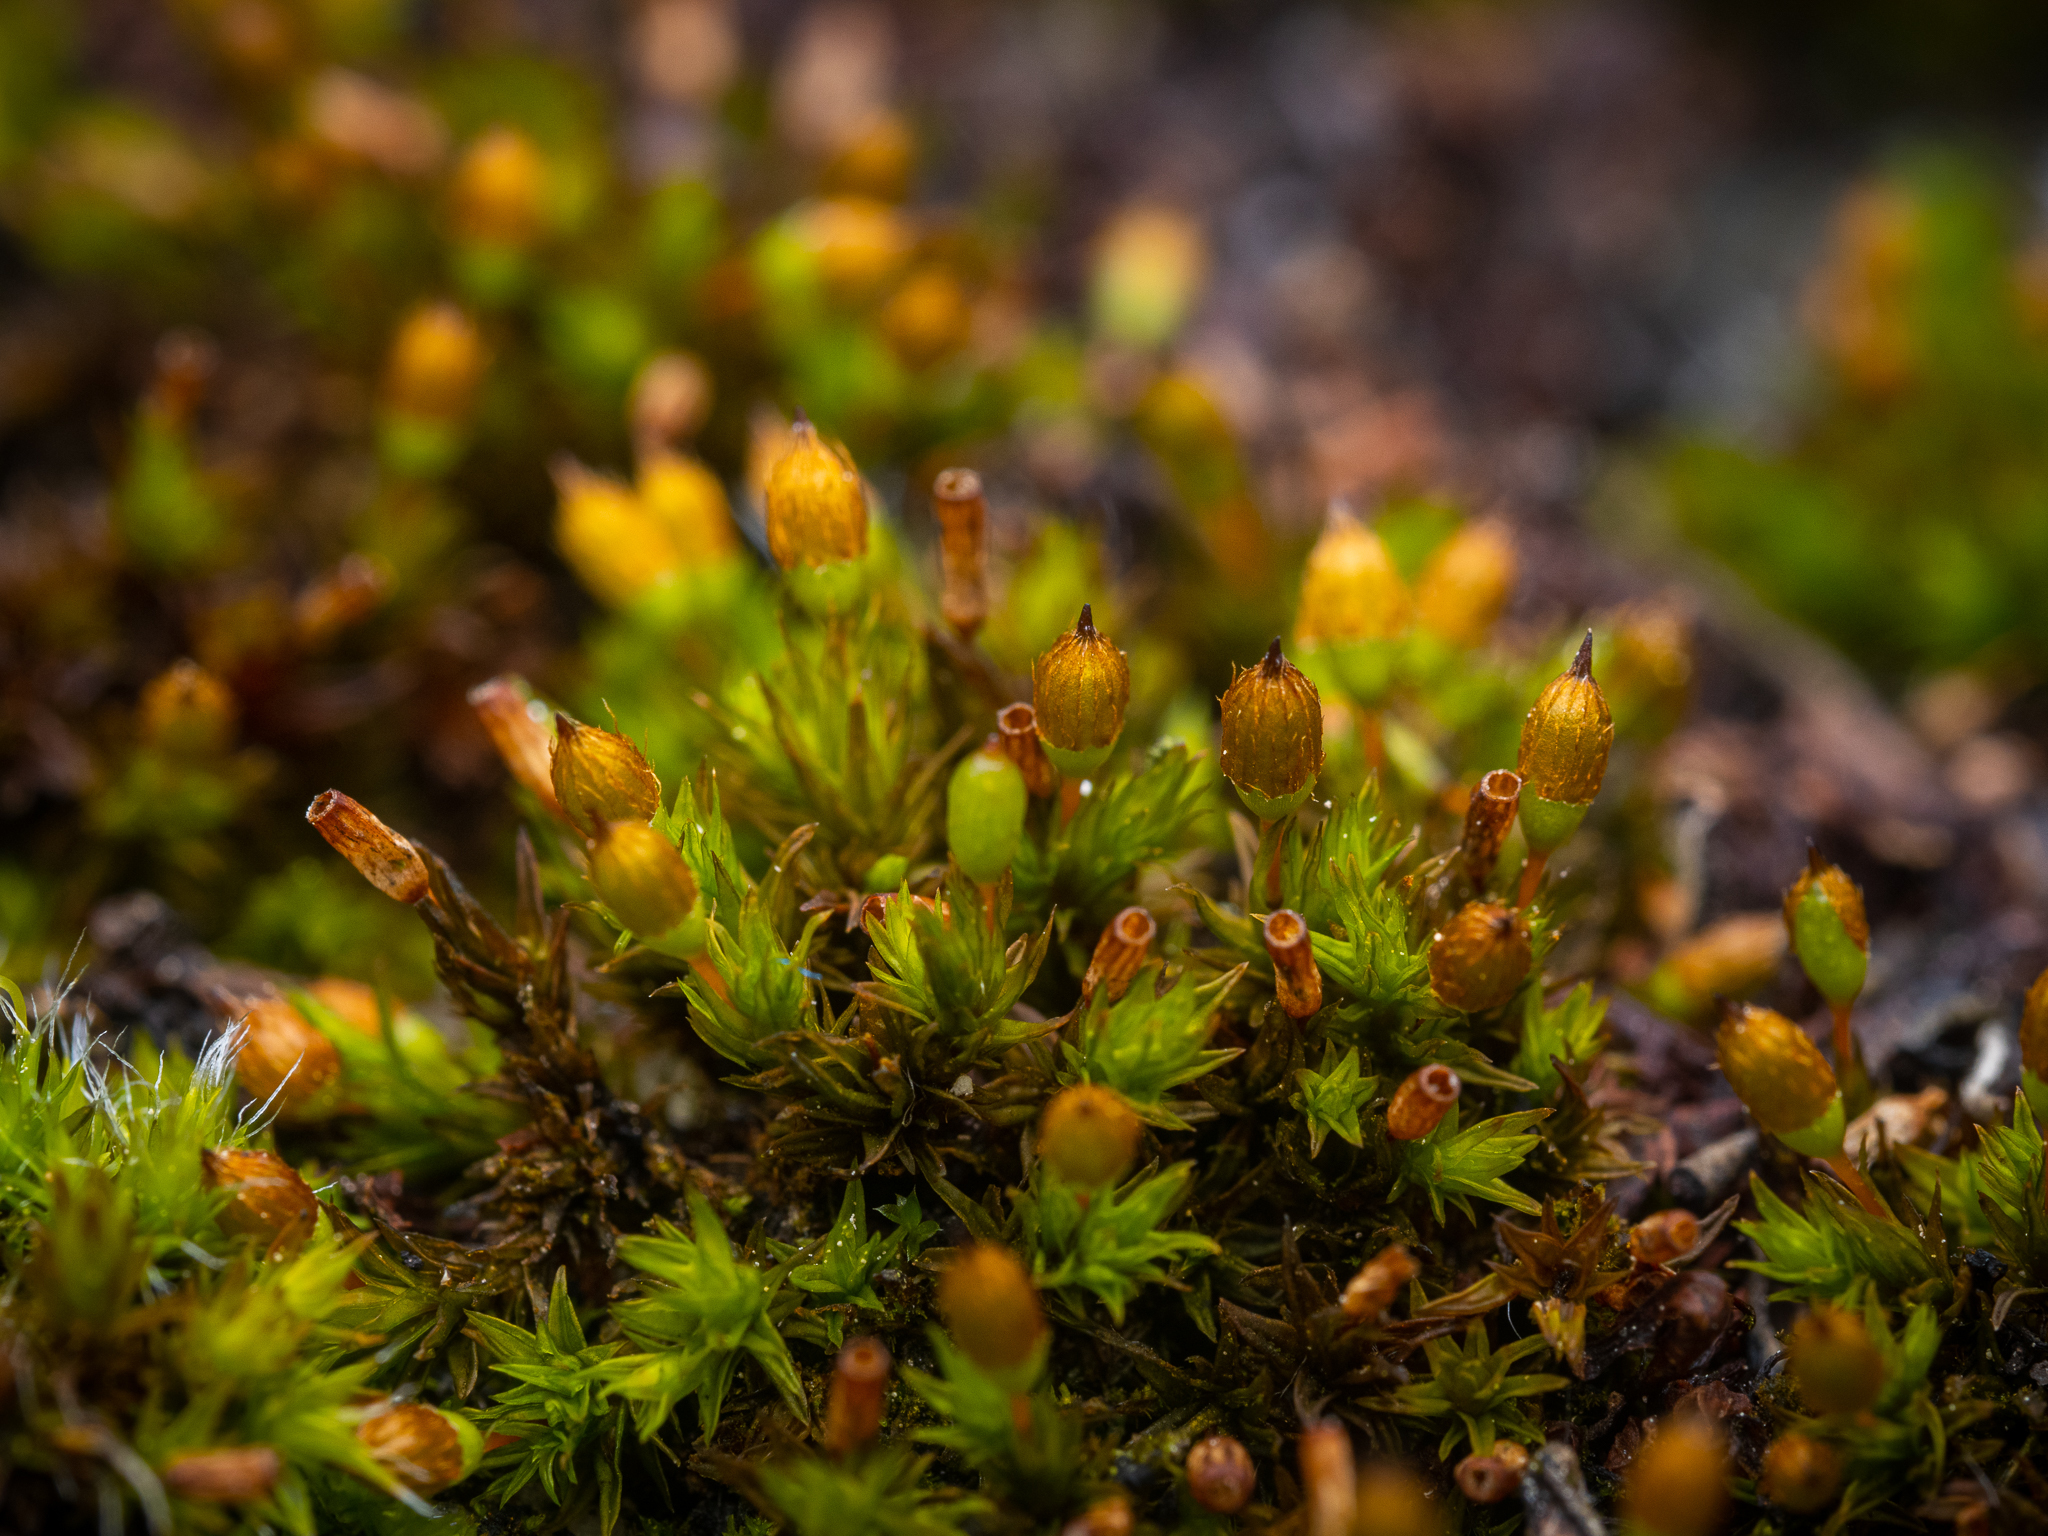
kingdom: Plantae
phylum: Bryophyta
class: Bryopsida
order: Orthotrichales
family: Orthotrichaceae
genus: Orthotrichum
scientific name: Orthotrichum anomalum
